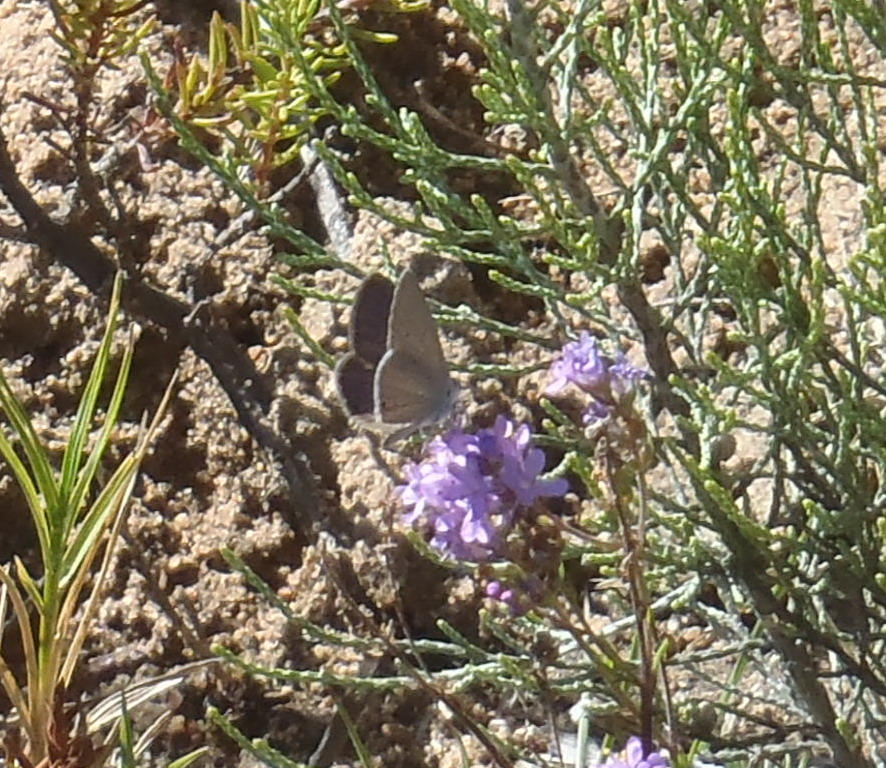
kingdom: Animalia
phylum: Arthropoda
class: Insecta
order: Lepidoptera
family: Lycaenidae
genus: Eicochrysops
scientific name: Eicochrysops messapus
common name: Cupreous blue
